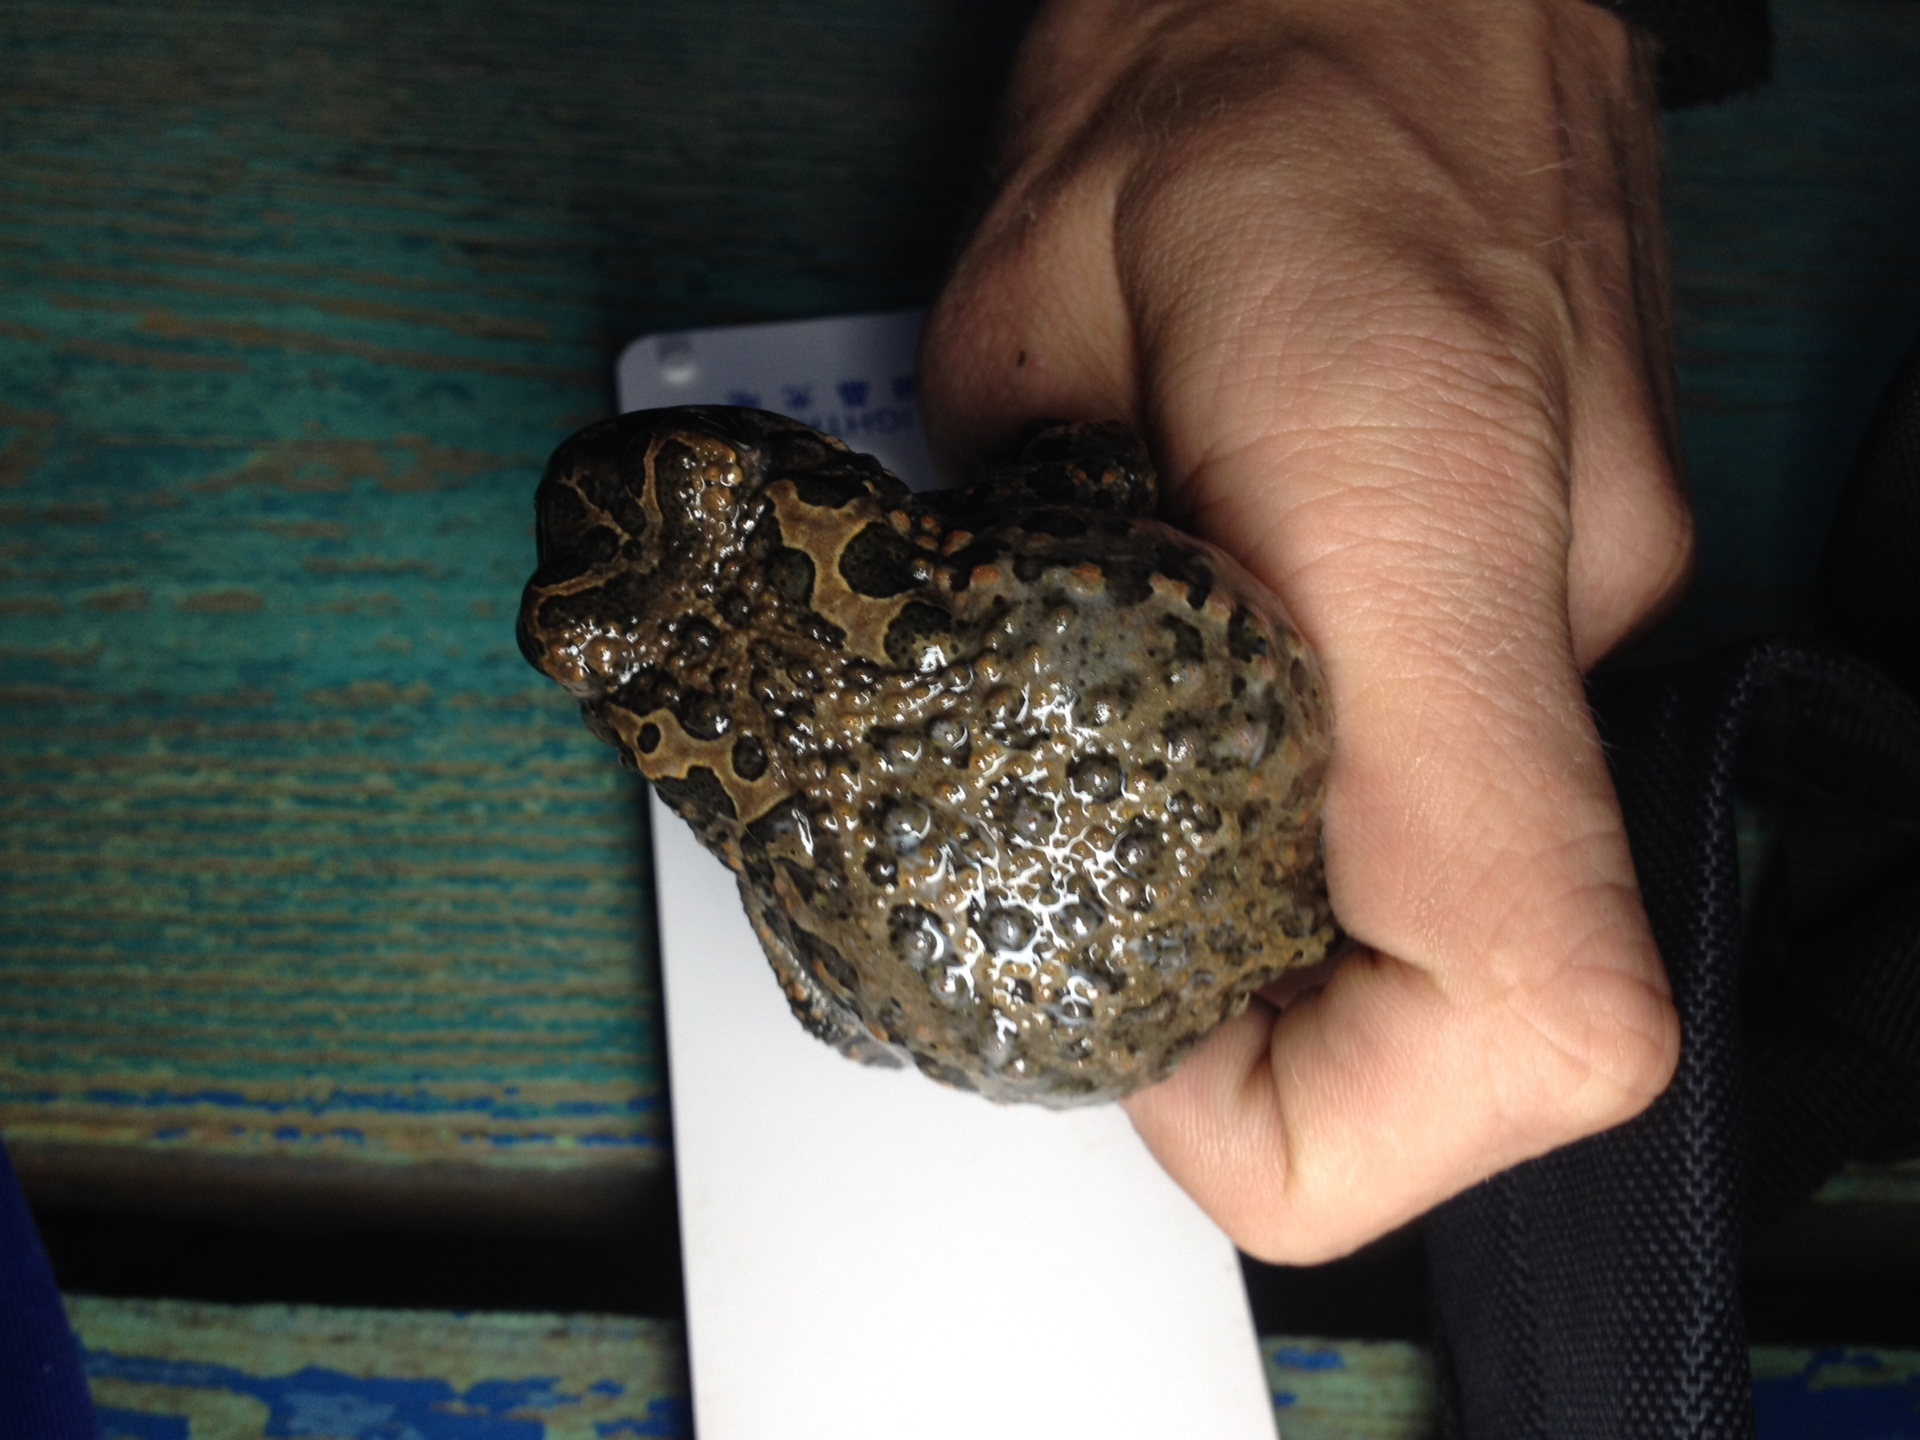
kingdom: Animalia
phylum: Chordata
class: Amphibia
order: Anura
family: Bufonidae
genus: Bufotes
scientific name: Bufotes viridis
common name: European green toad
